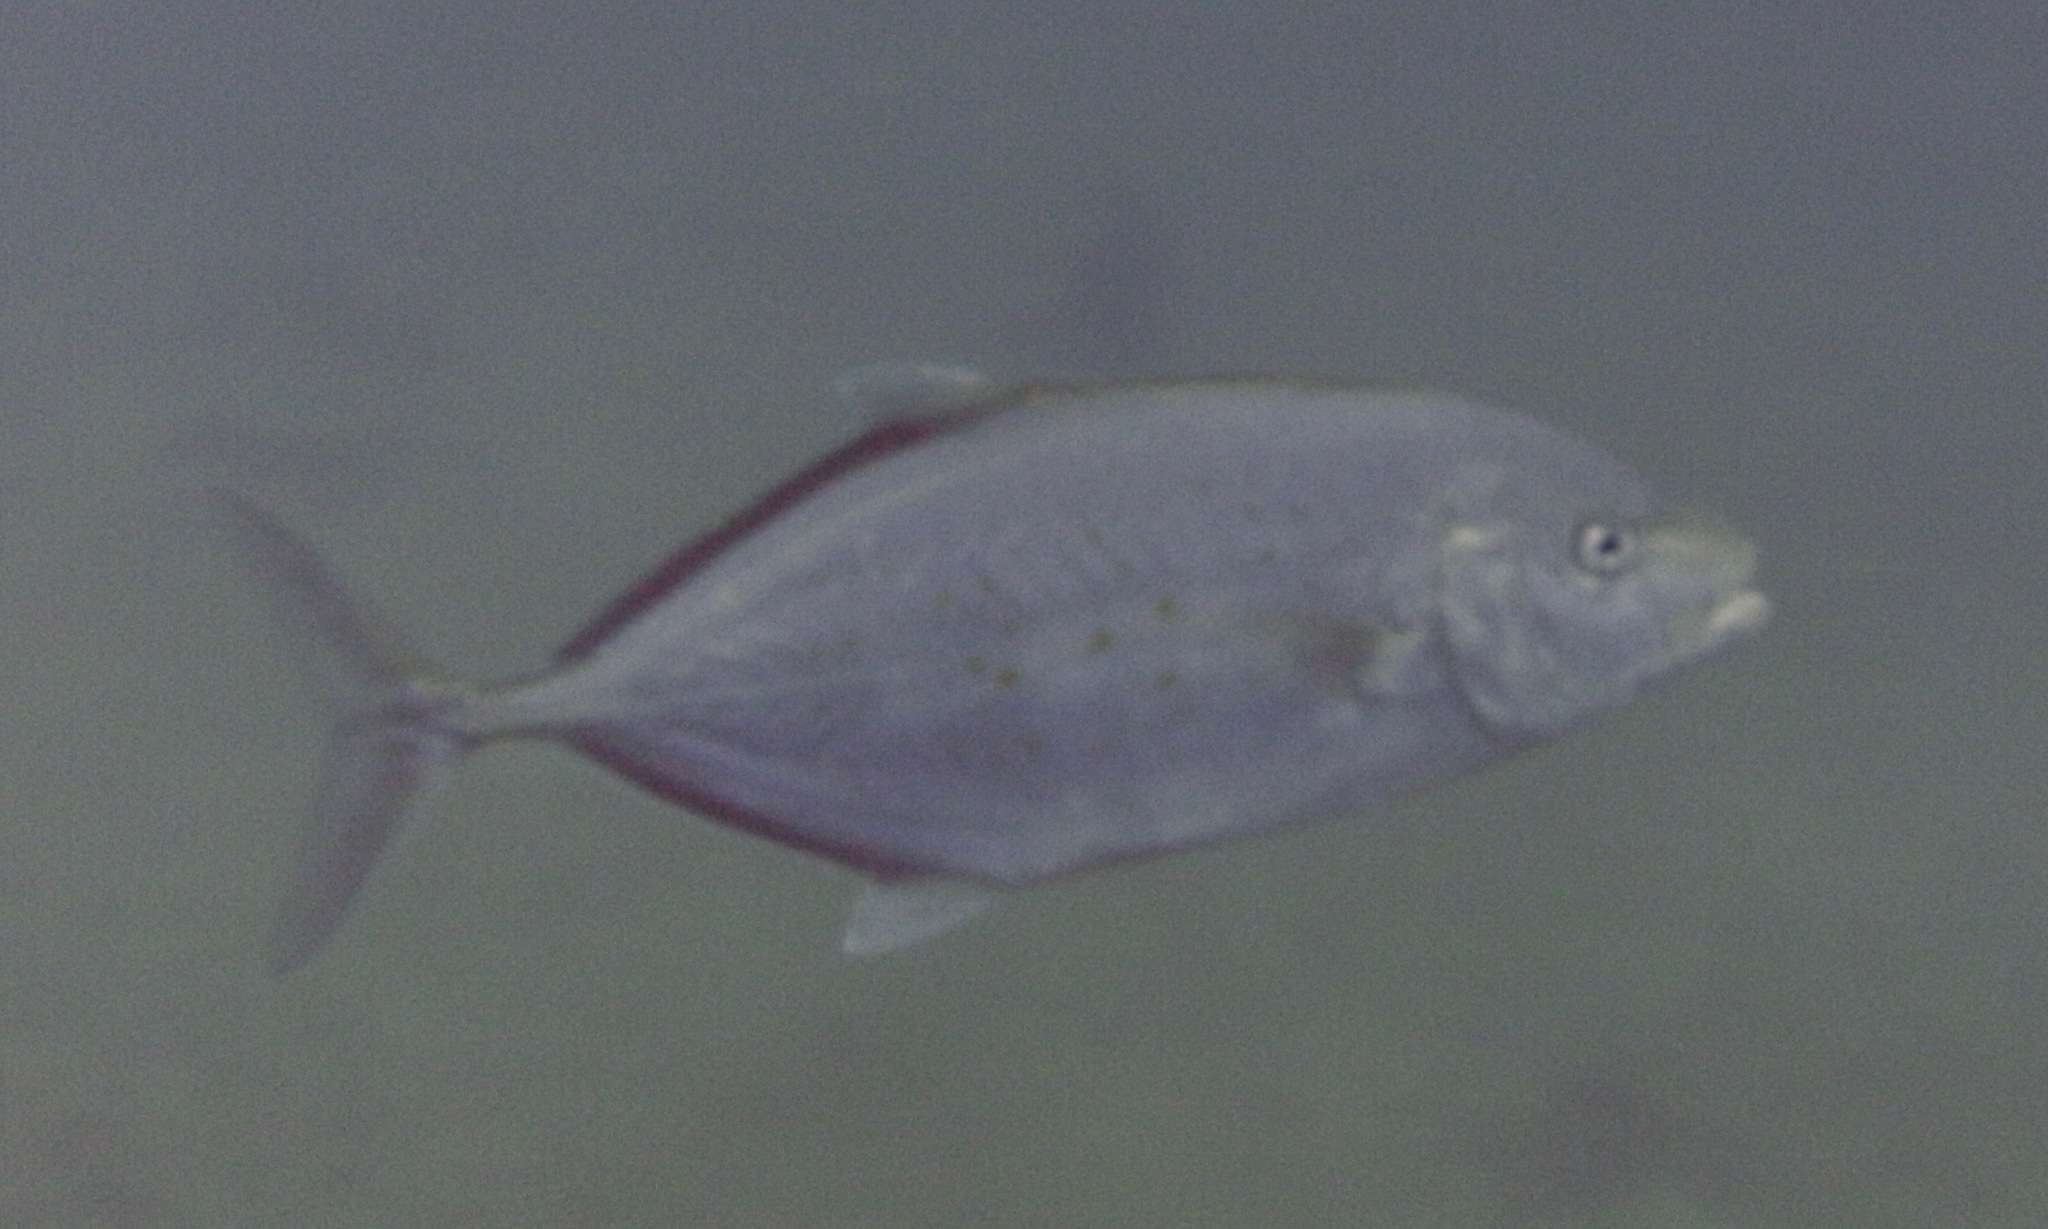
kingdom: Animalia
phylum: Chordata
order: Perciformes
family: Carangidae
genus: Flavocaranx
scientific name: Flavocaranx bajad
